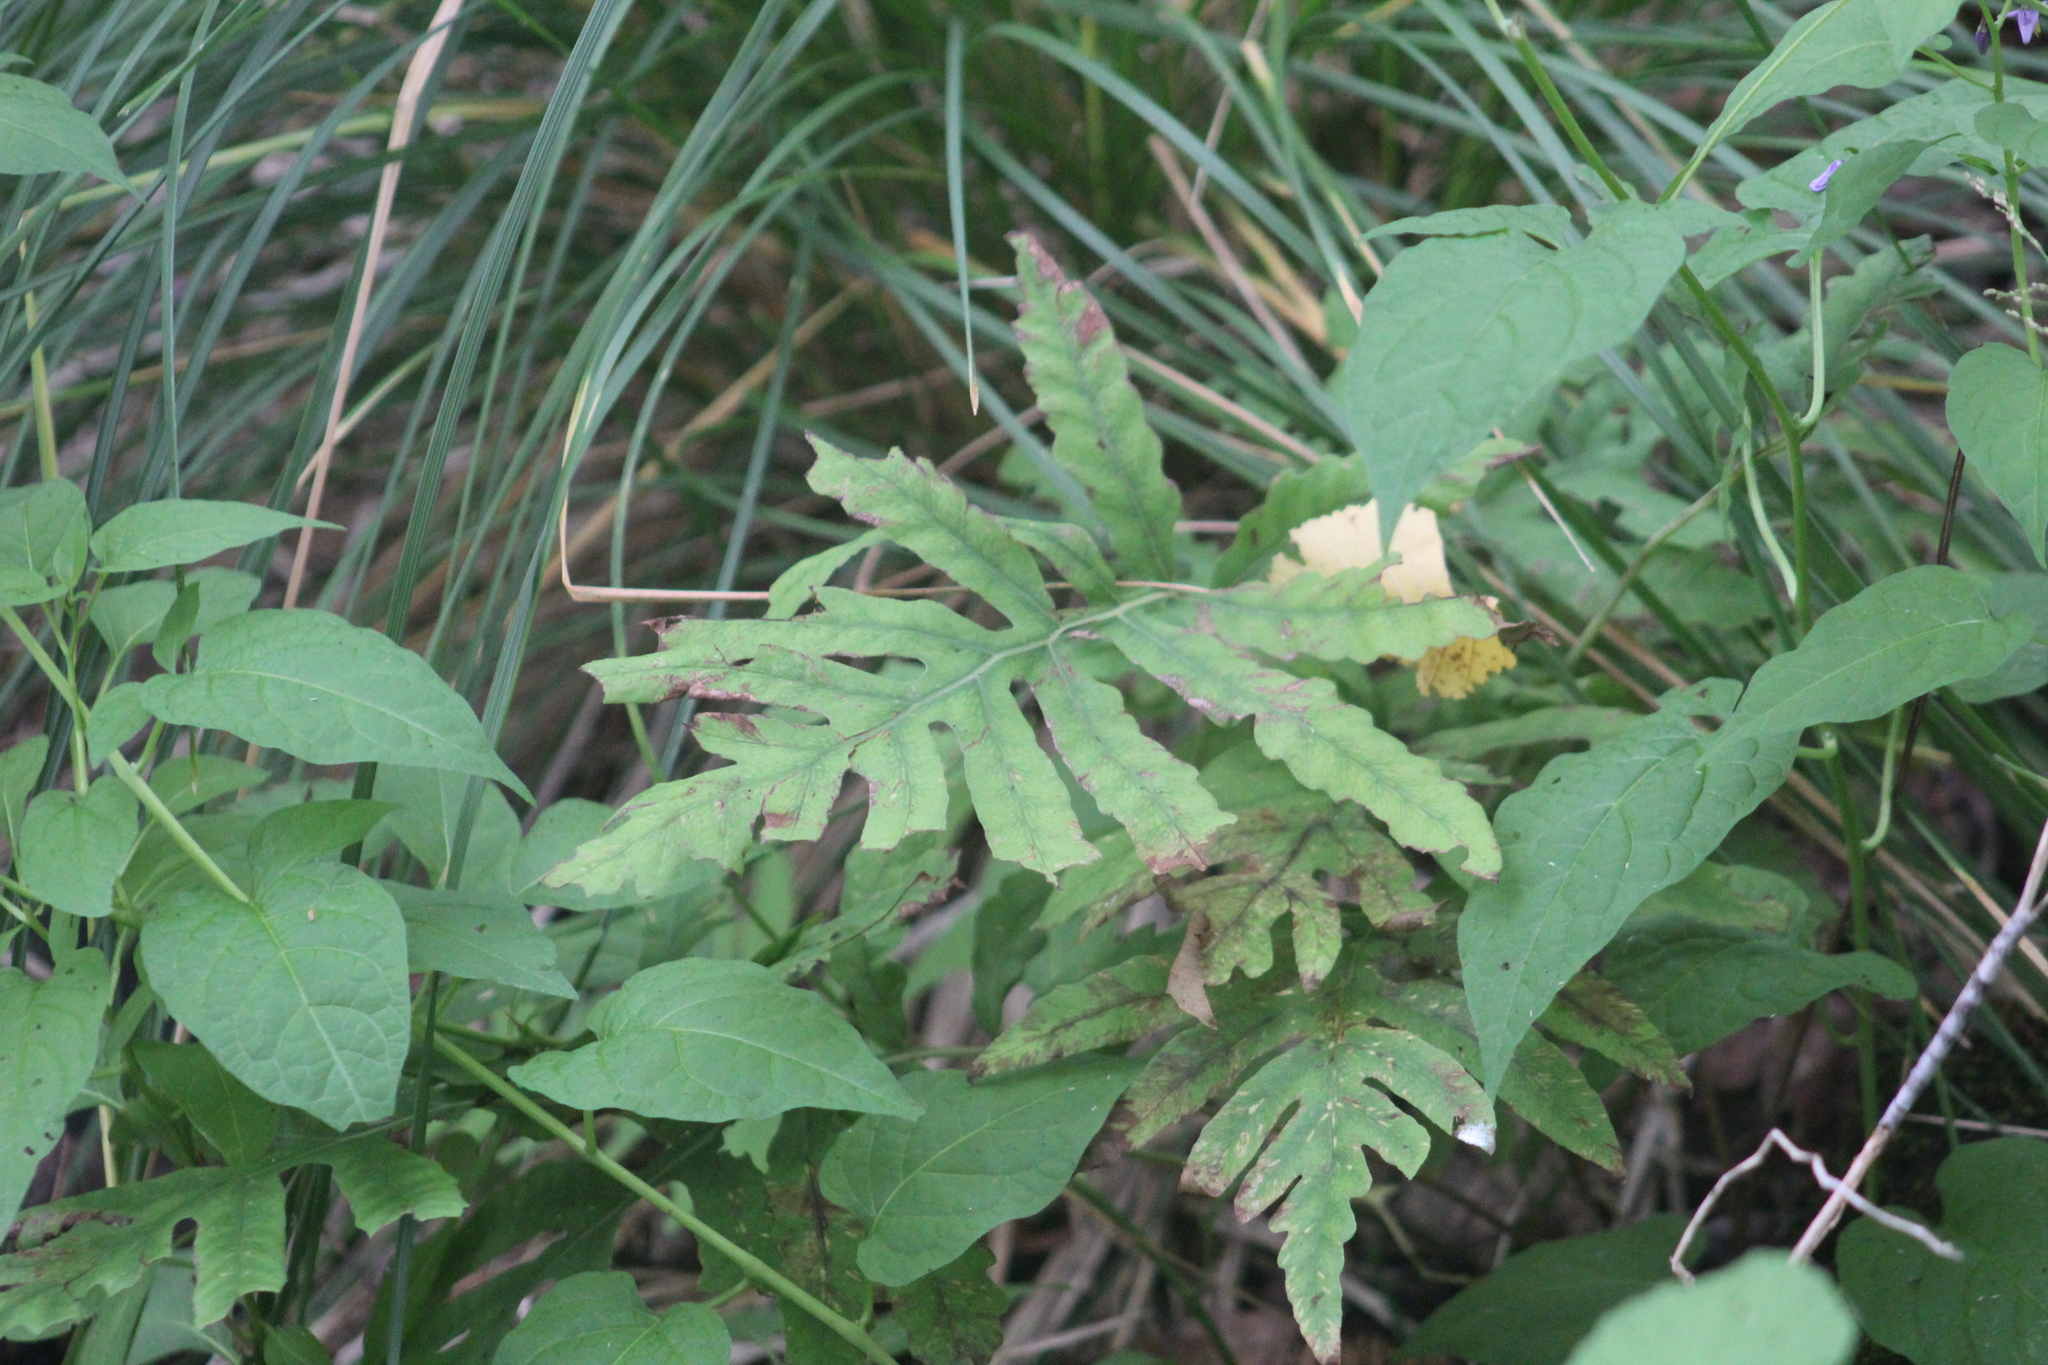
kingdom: Plantae
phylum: Tracheophyta
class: Polypodiopsida
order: Polypodiales
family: Onocleaceae
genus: Onoclea
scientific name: Onoclea sensibilis
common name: Sensitive fern
